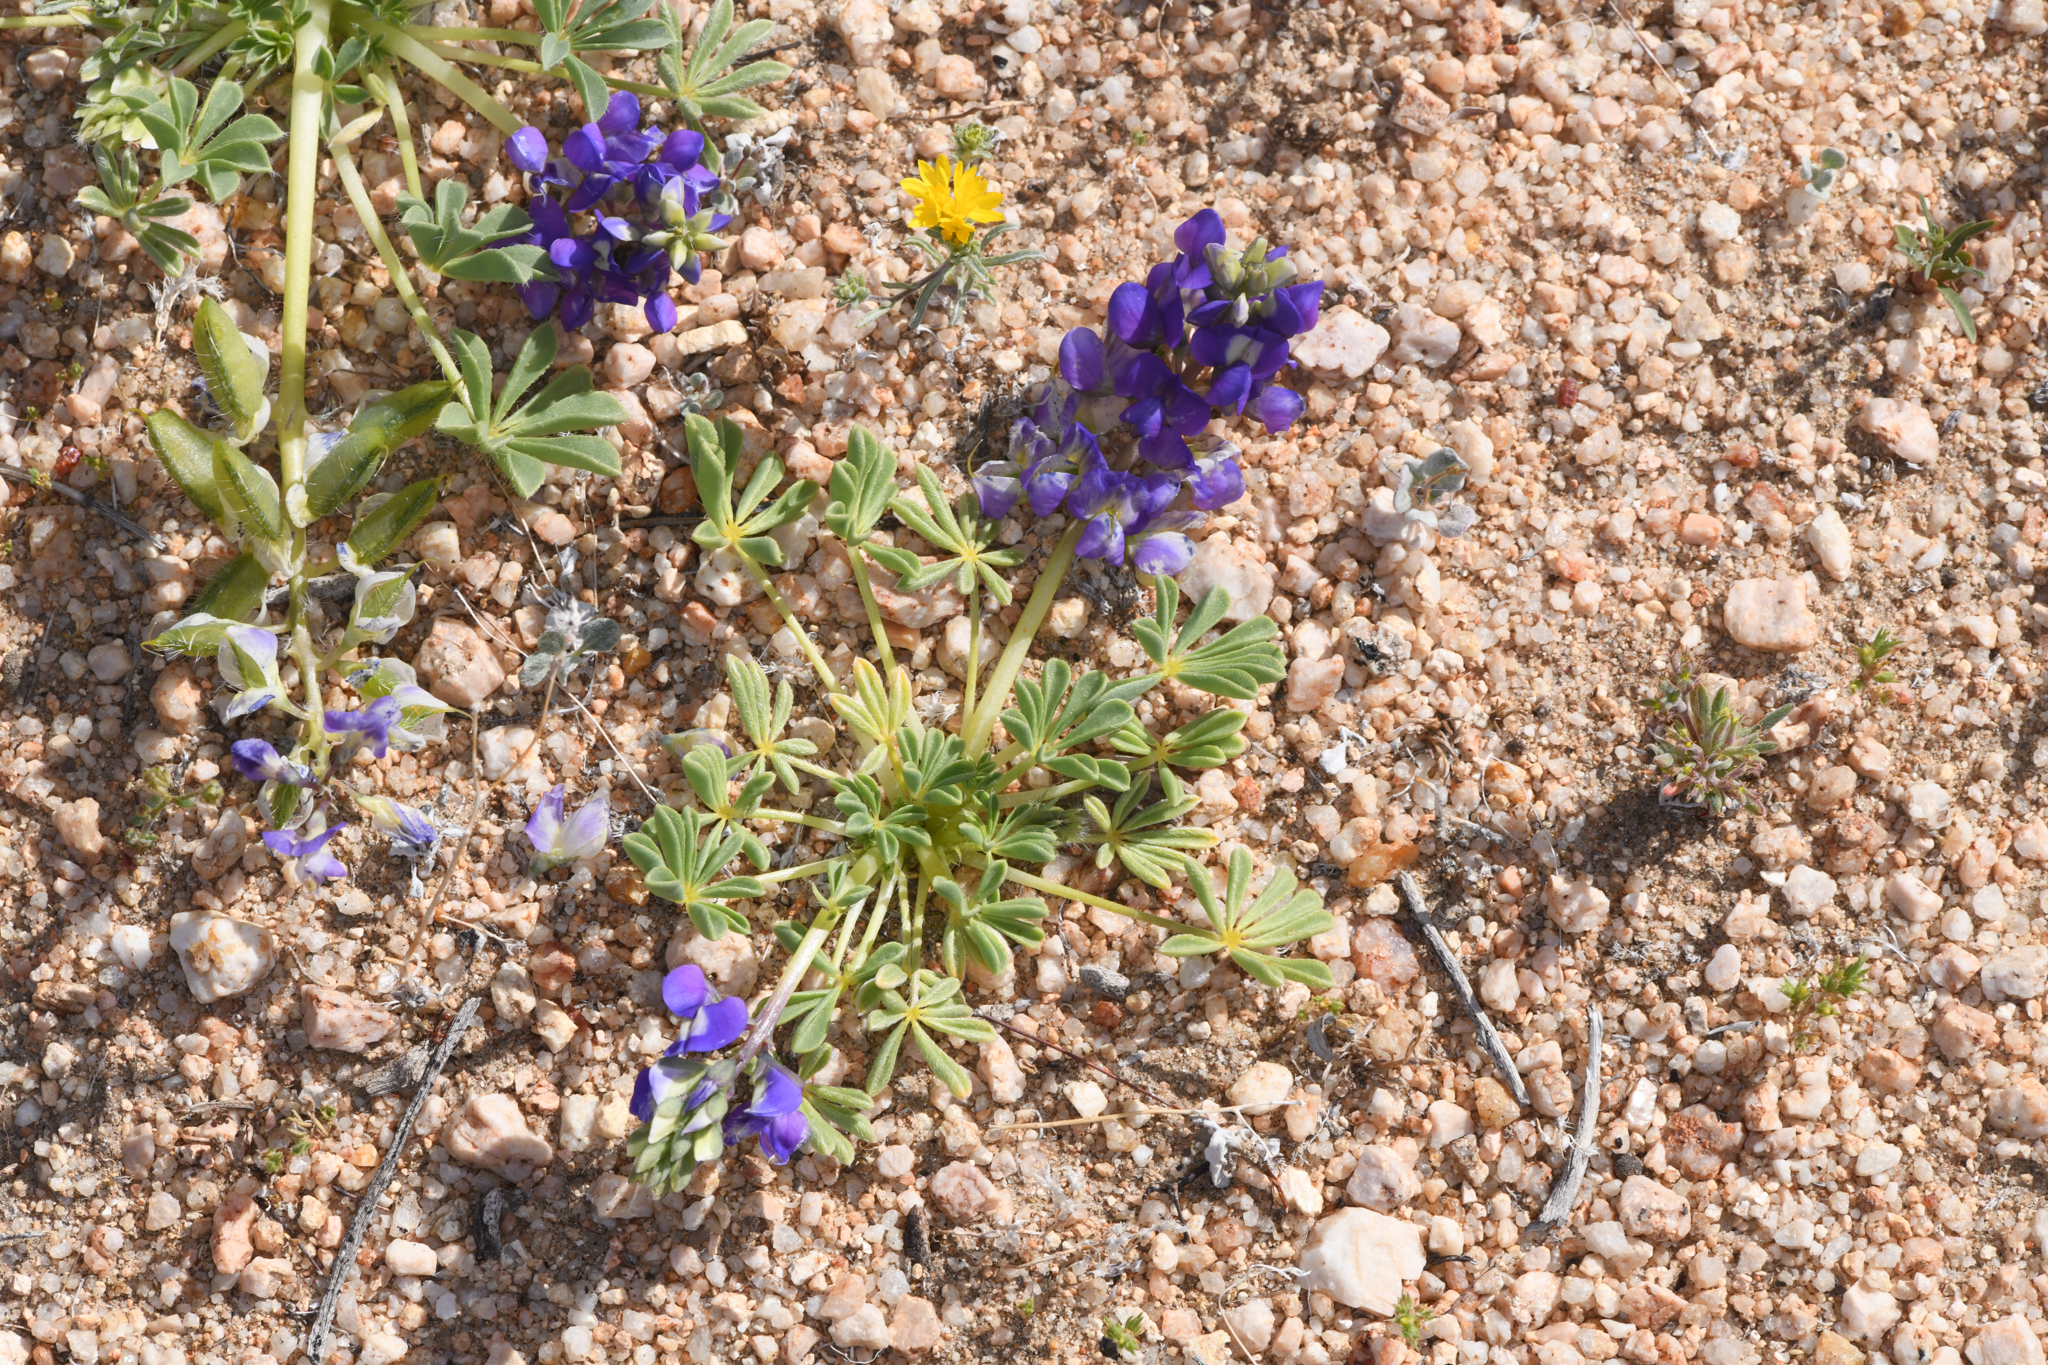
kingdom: Plantae
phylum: Tracheophyta
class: Magnoliopsida
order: Fabales
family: Fabaceae
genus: Lupinus
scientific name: Lupinus
